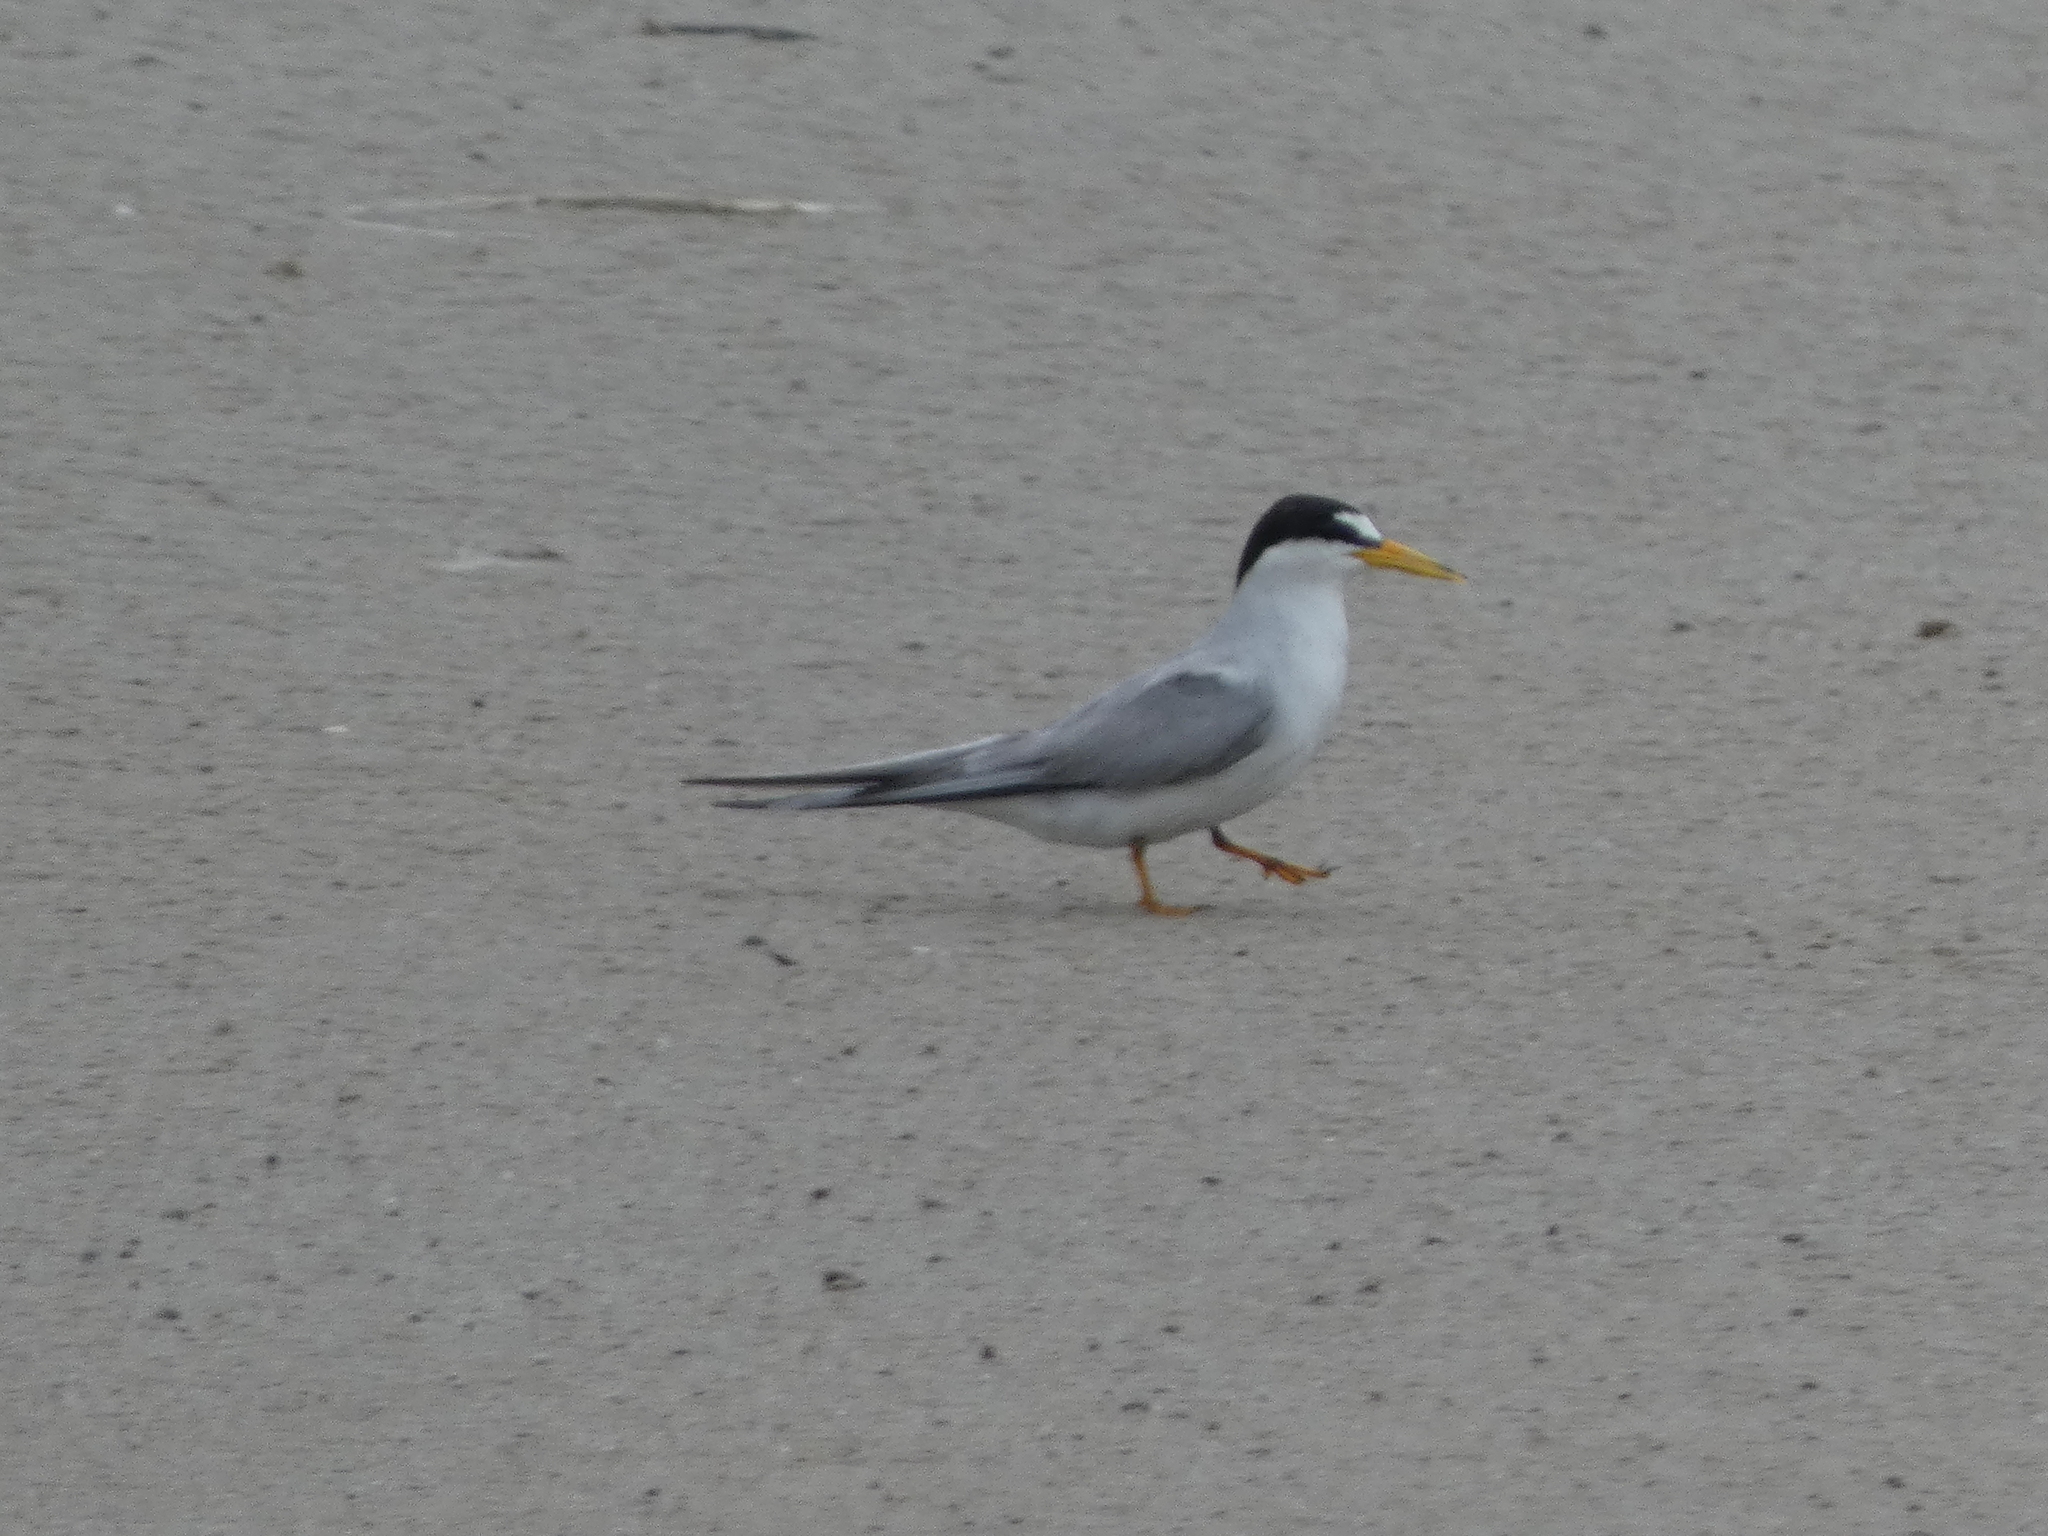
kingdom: Animalia
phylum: Chordata
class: Aves
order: Charadriiformes
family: Laridae
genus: Sternula
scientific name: Sternula antillarum
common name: Least tern
